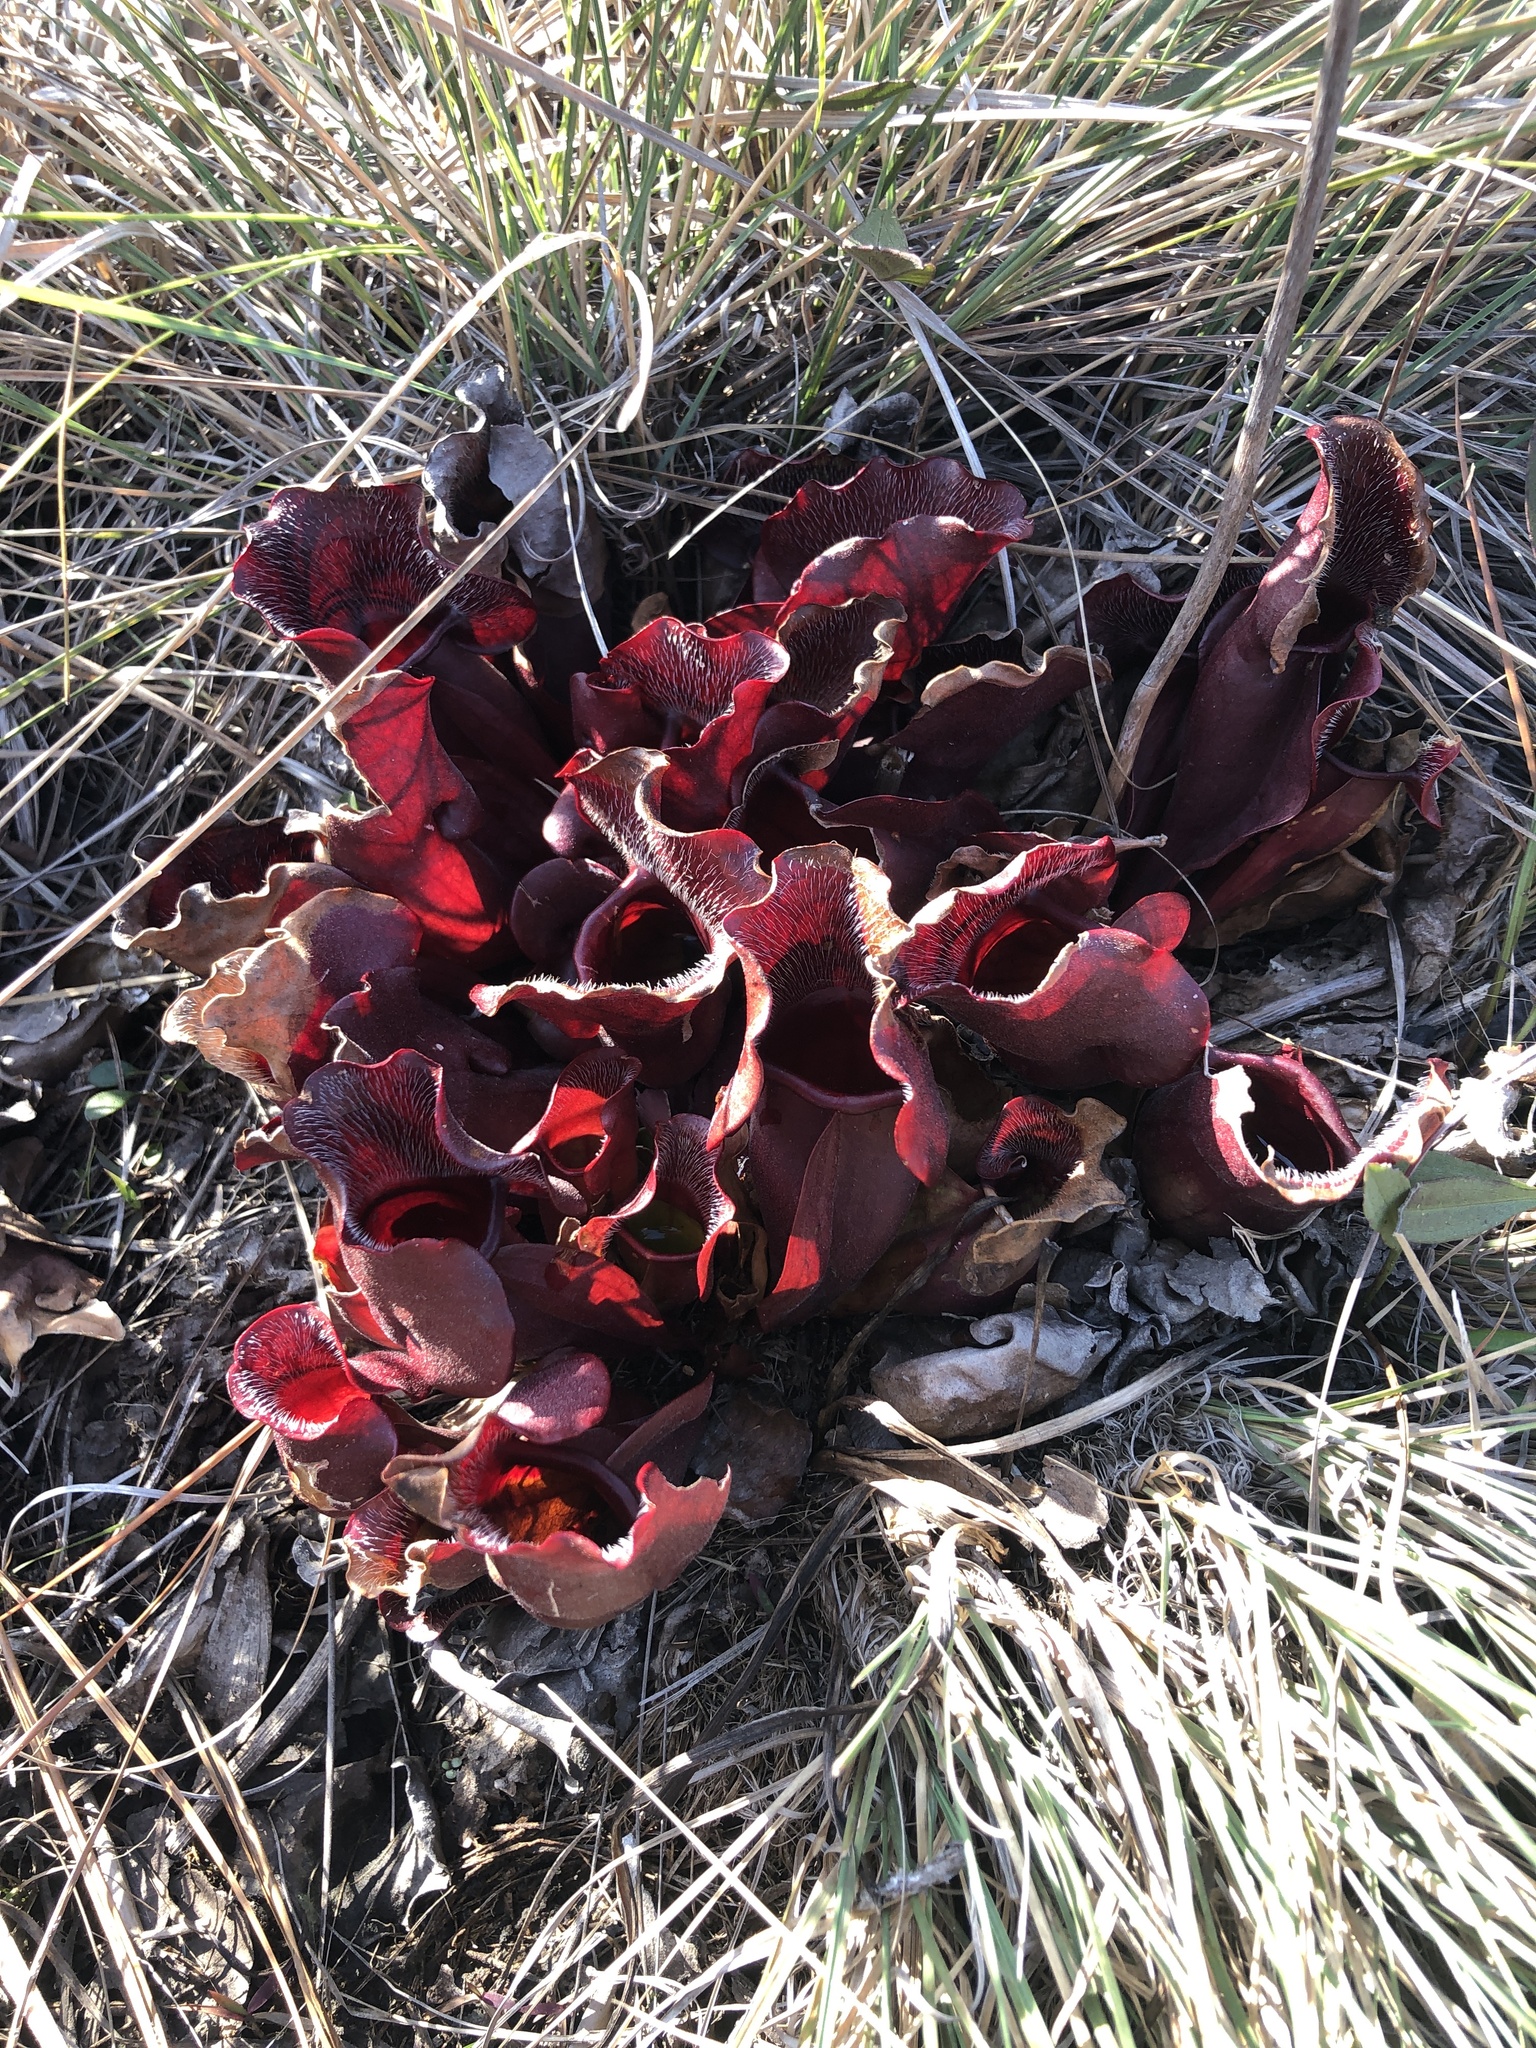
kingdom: Plantae
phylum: Tracheophyta
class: Magnoliopsida
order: Ericales
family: Sarraceniaceae
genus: Sarracenia
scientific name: Sarracenia purpurea
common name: Pitcherplant
